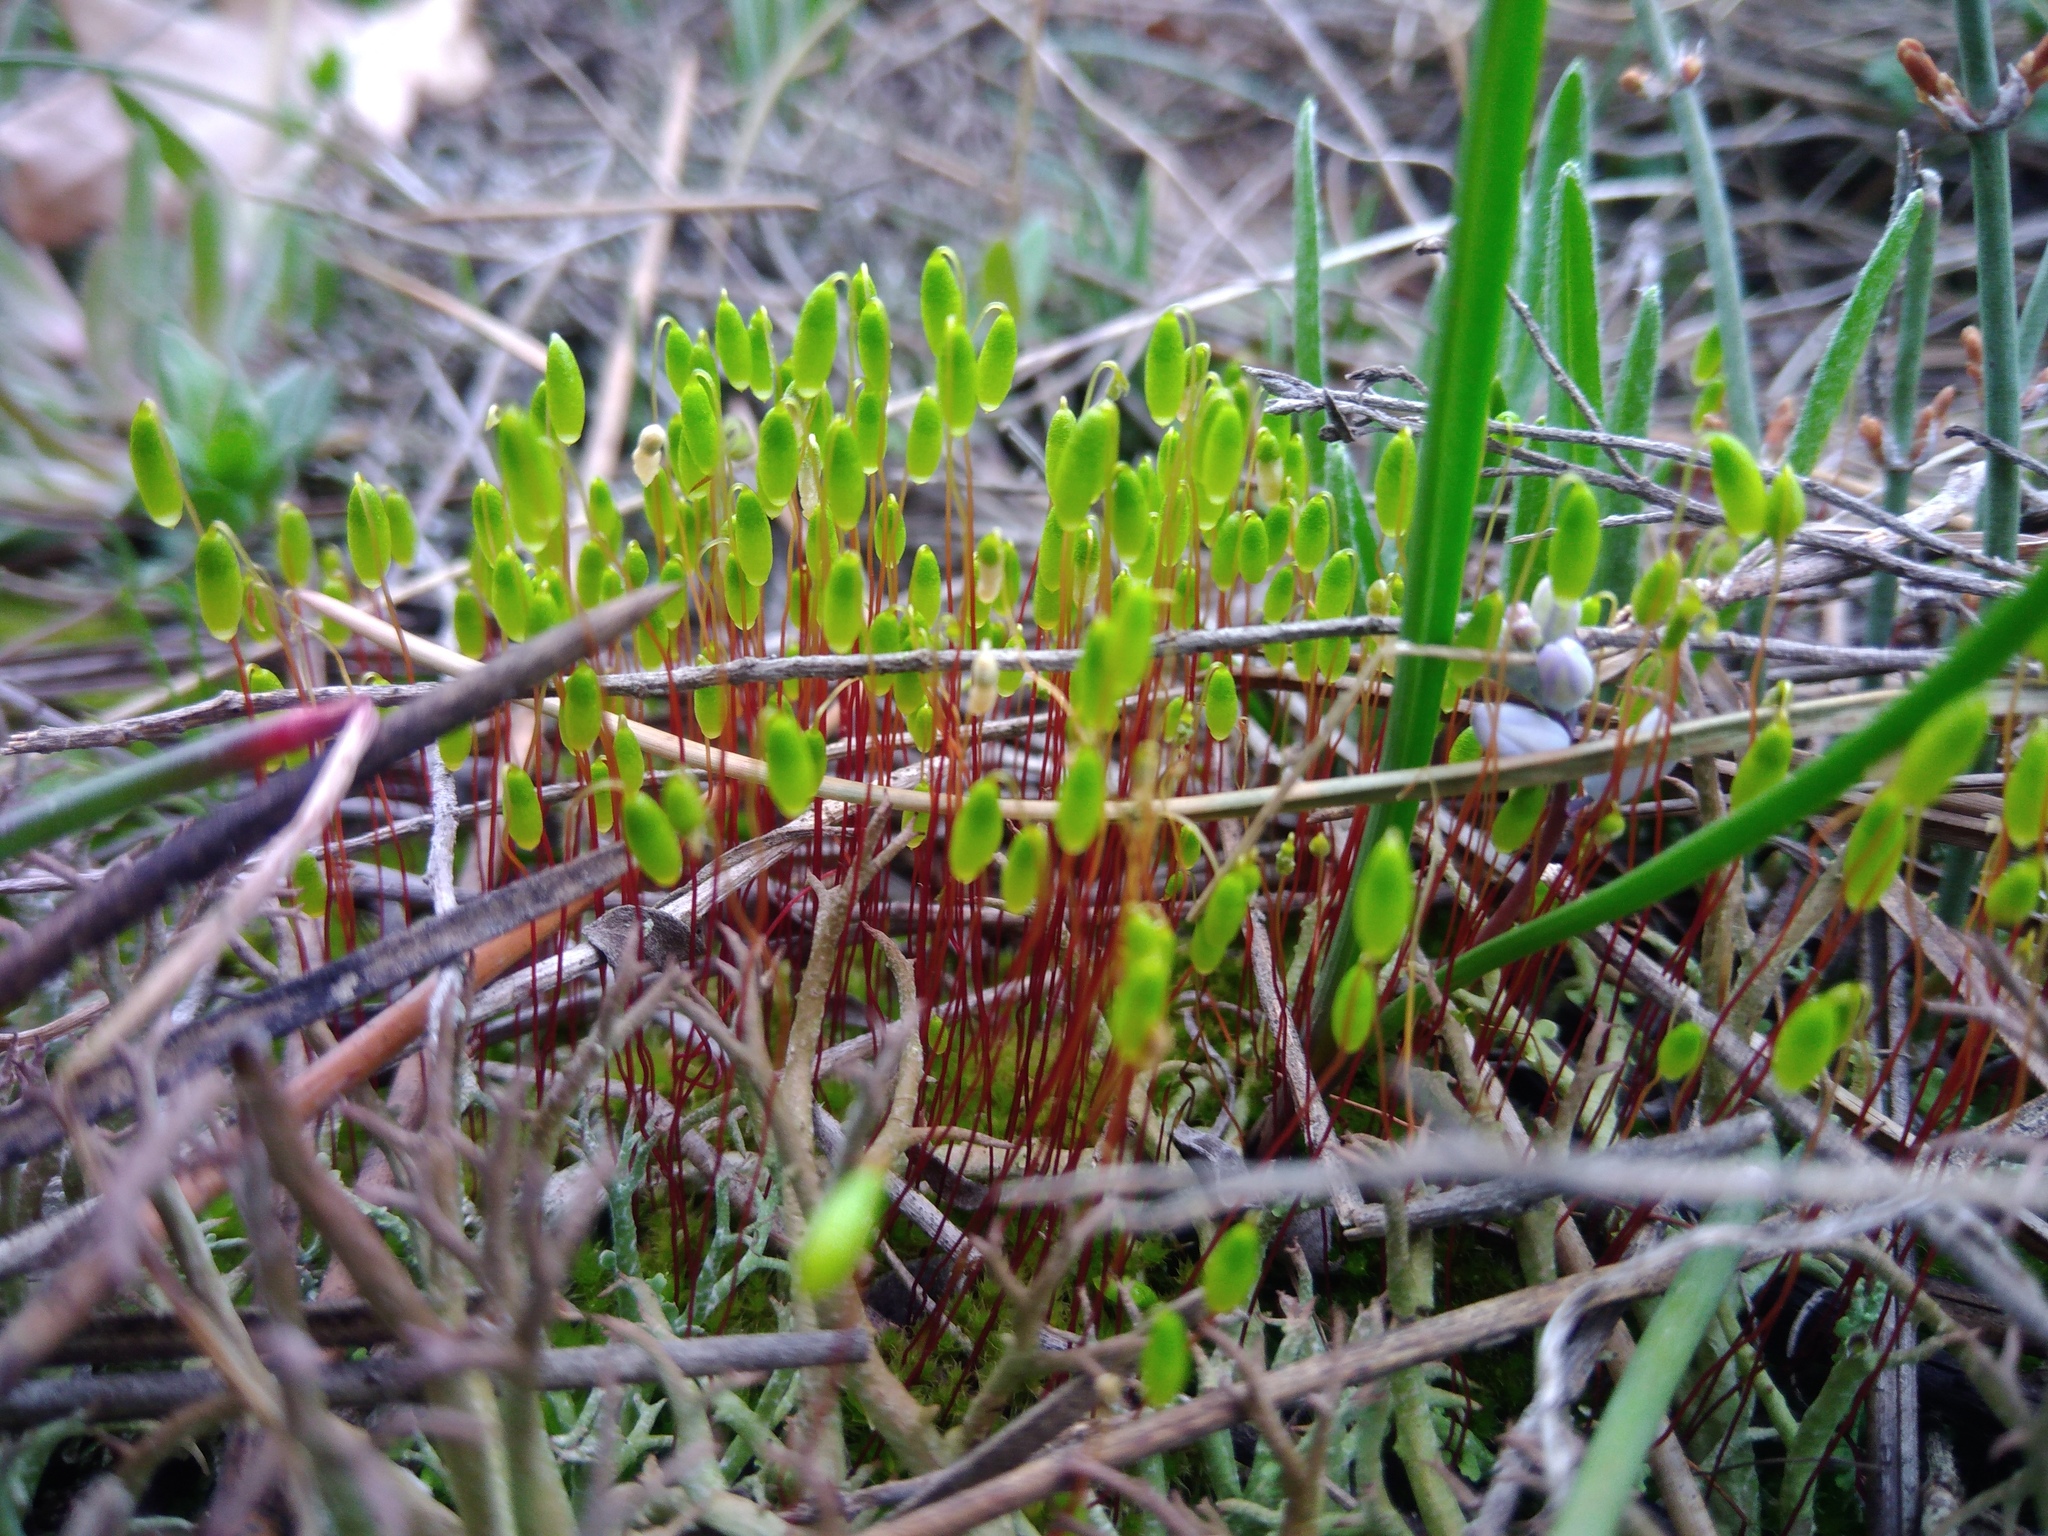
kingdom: Plantae
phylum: Bryophyta
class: Bryopsida
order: Bryales
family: Mniaceae
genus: Pohlia
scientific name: Pohlia nutans
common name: Nodding thread-moss
